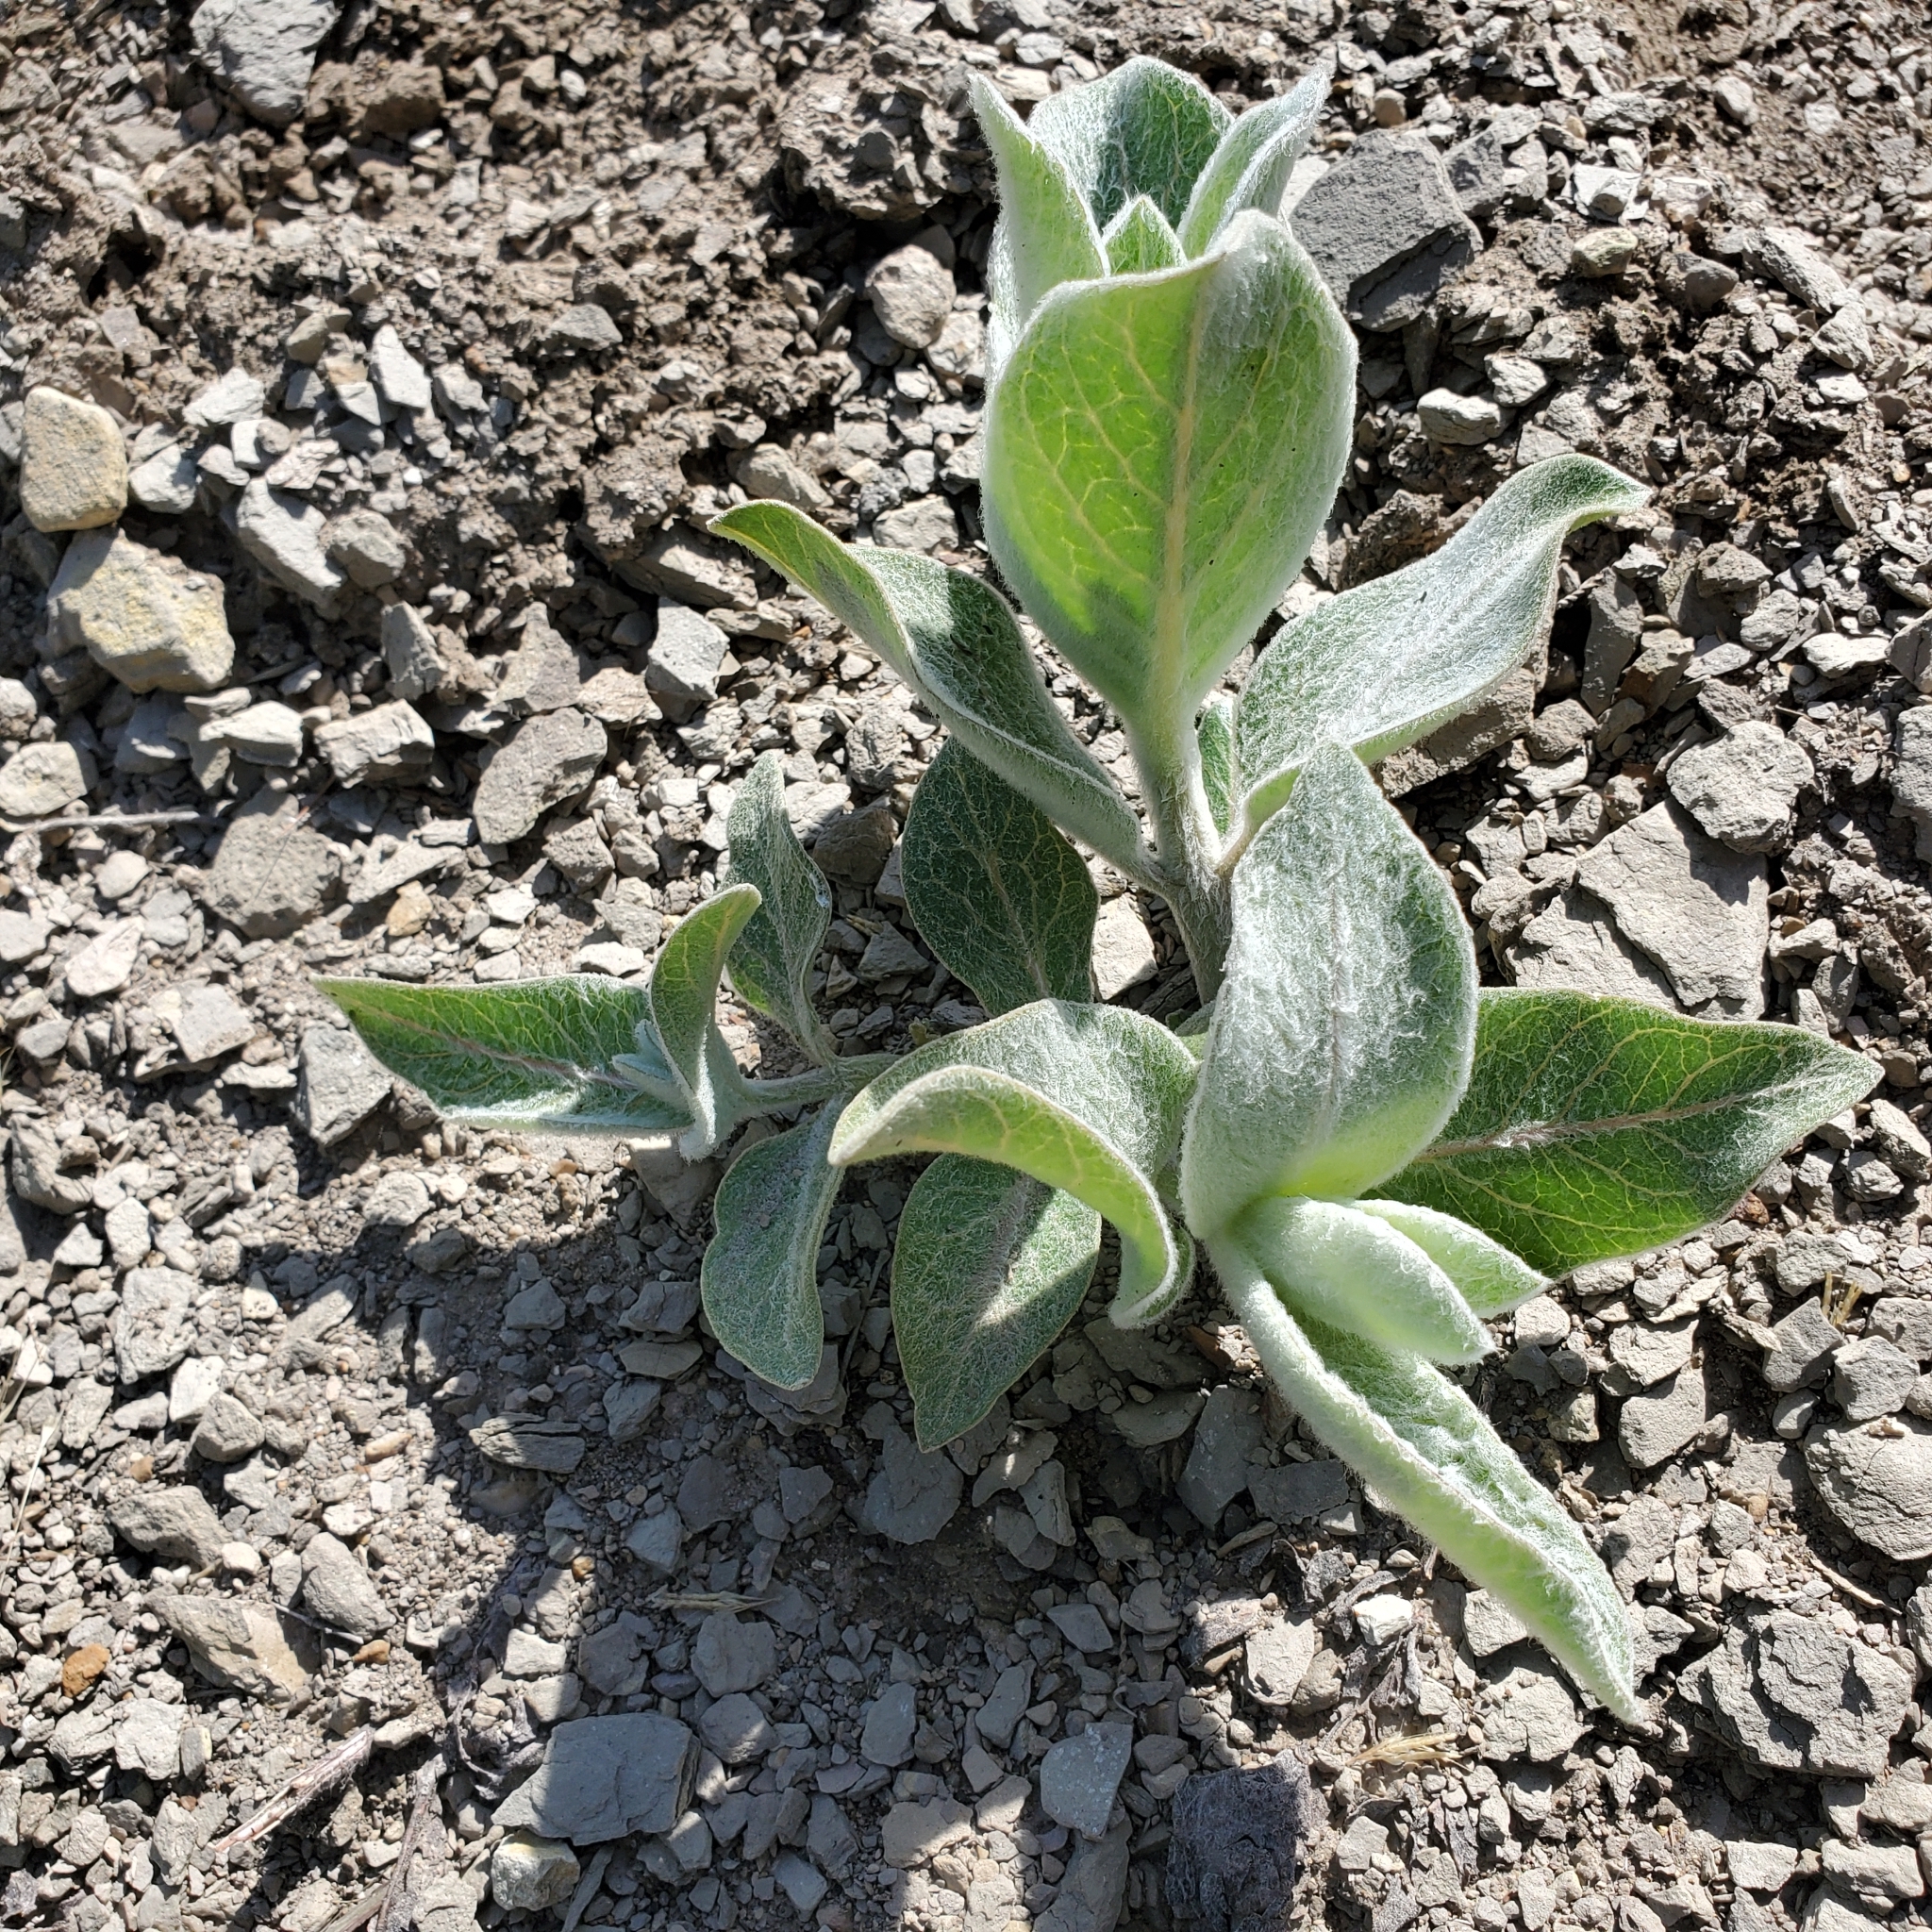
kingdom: Plantae
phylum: Tracheophyta
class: Magnoliopsida
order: Gentianales
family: Apocynaceae
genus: Asclepias
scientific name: Asclepias eriocarpa
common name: Indian milkweed
